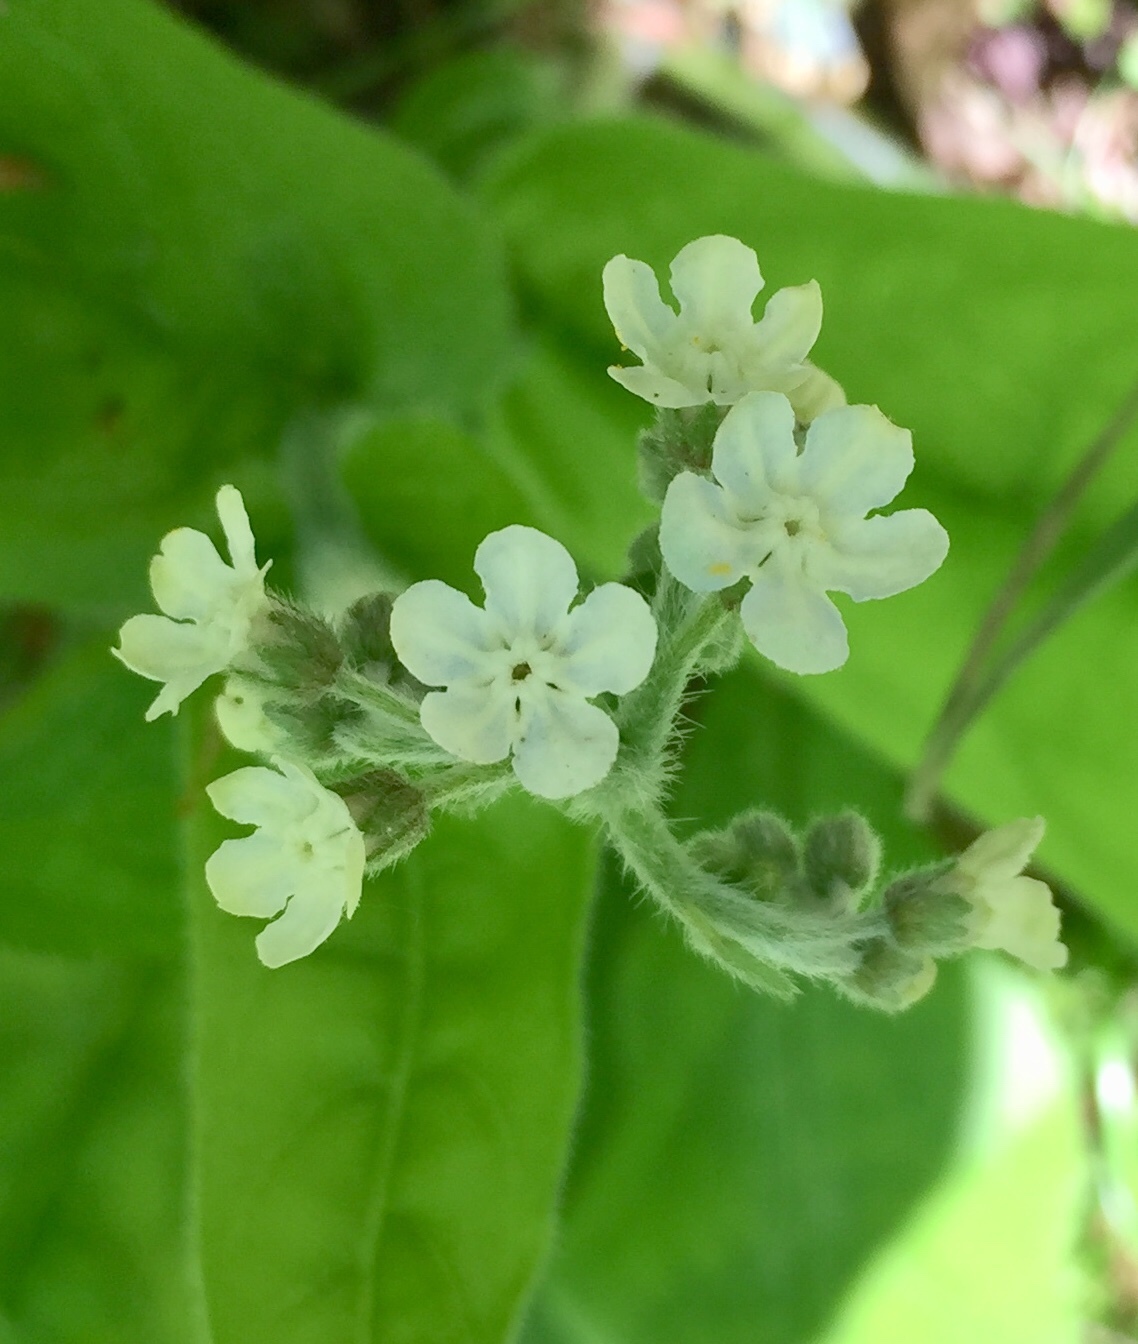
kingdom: Plantae
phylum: Tracheophyta
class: Magnoliopsida
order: Boraginales
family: Boraginaceae
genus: Andersonglossum
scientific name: Andersonglossum virginianum
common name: Wild comfrey
